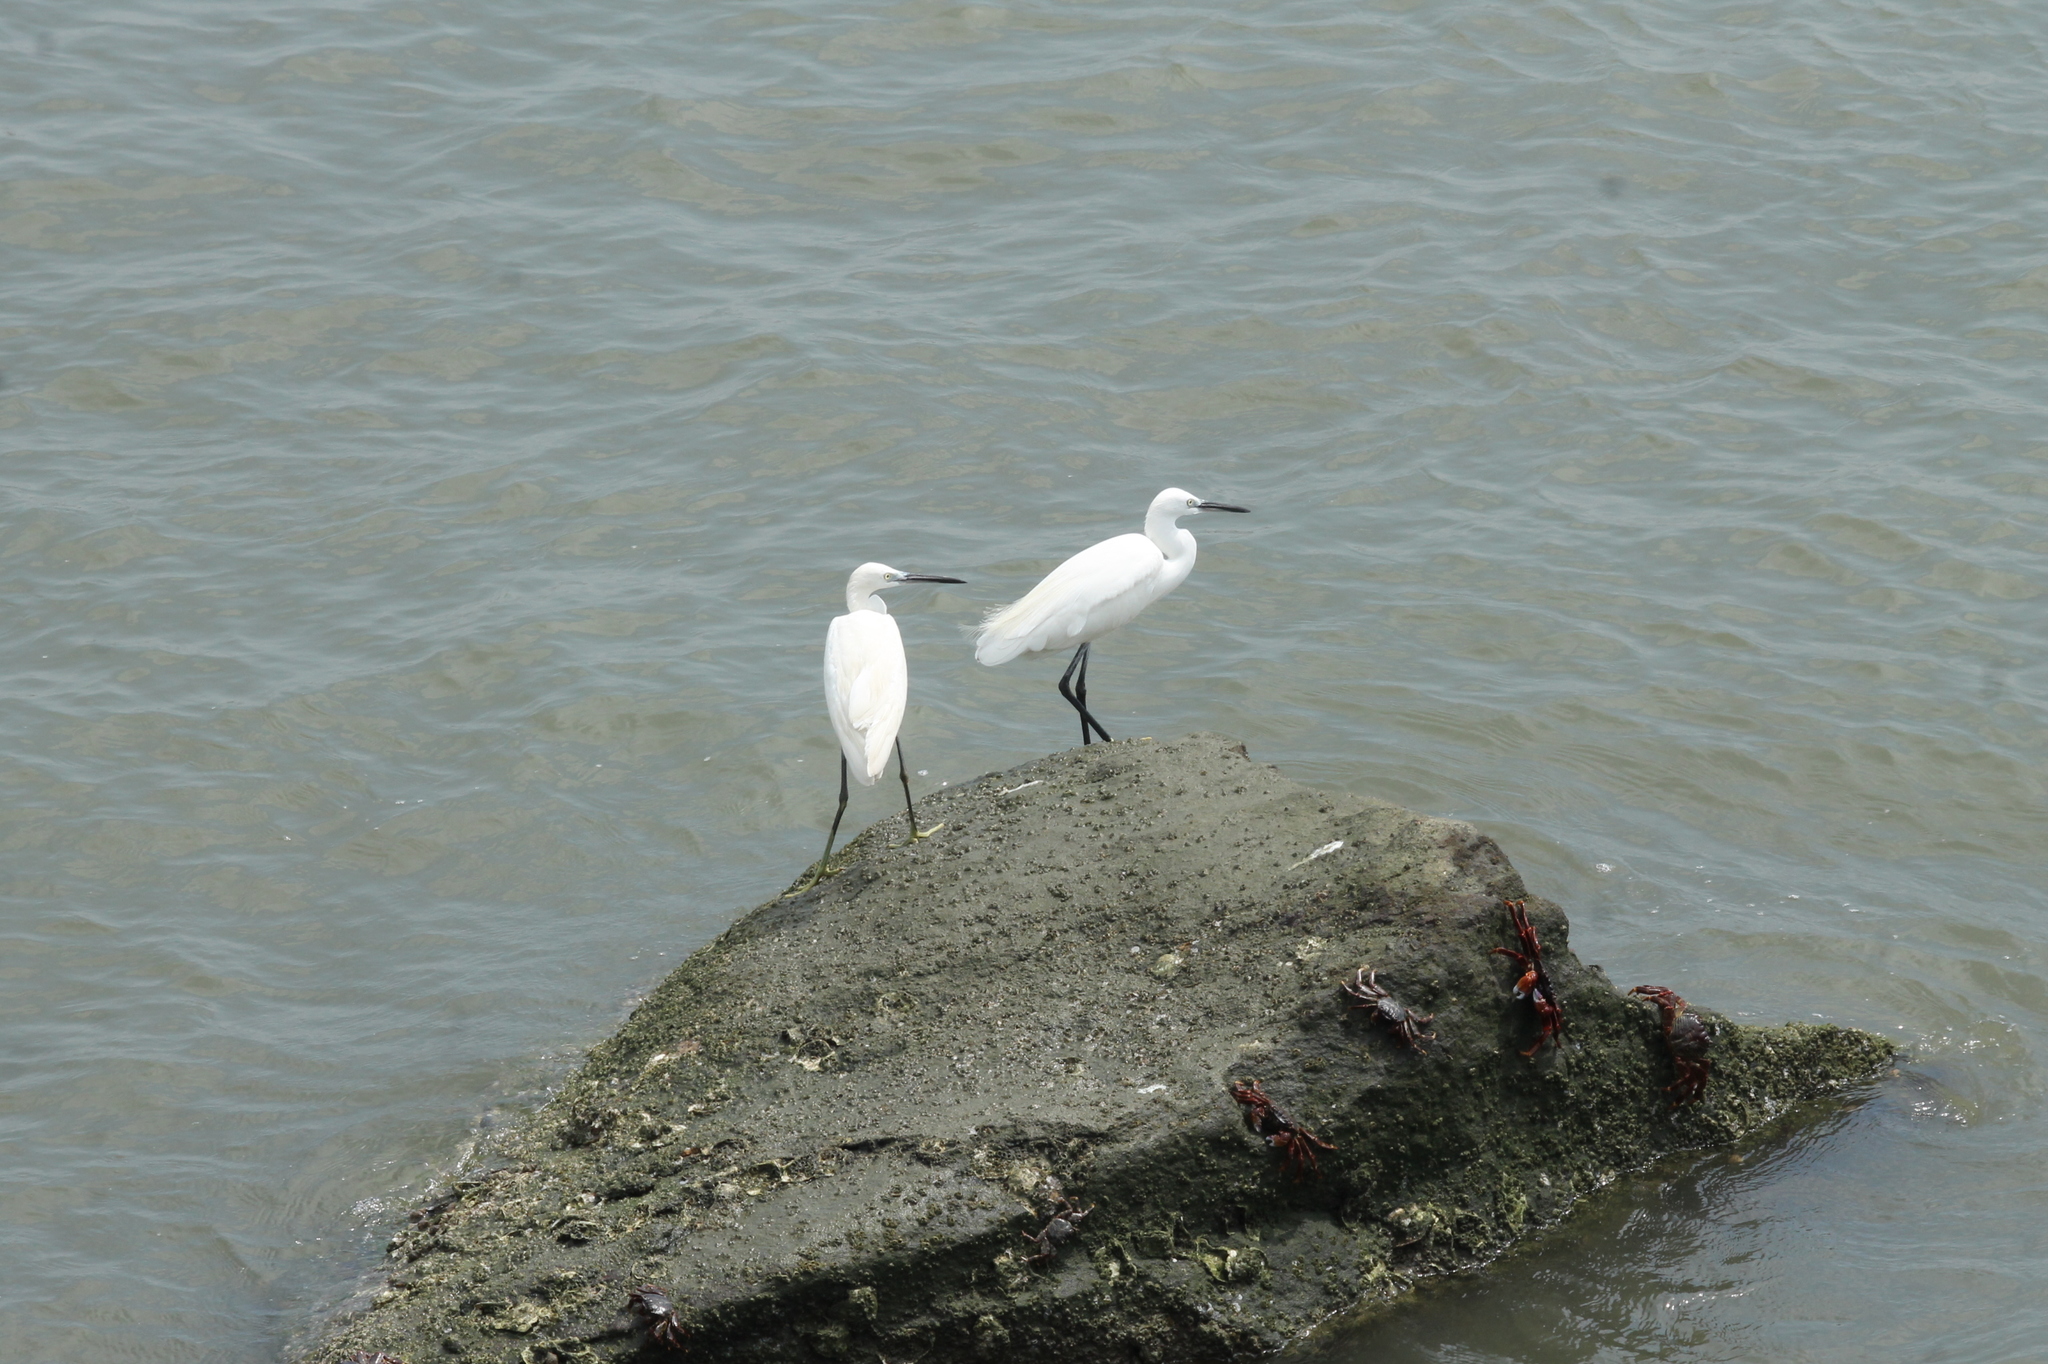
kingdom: Animalia
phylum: Chordata
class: Aves
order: Pelecaniformes
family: Ardeidae
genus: Egretta
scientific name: Egretta garzetta
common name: Little egret
